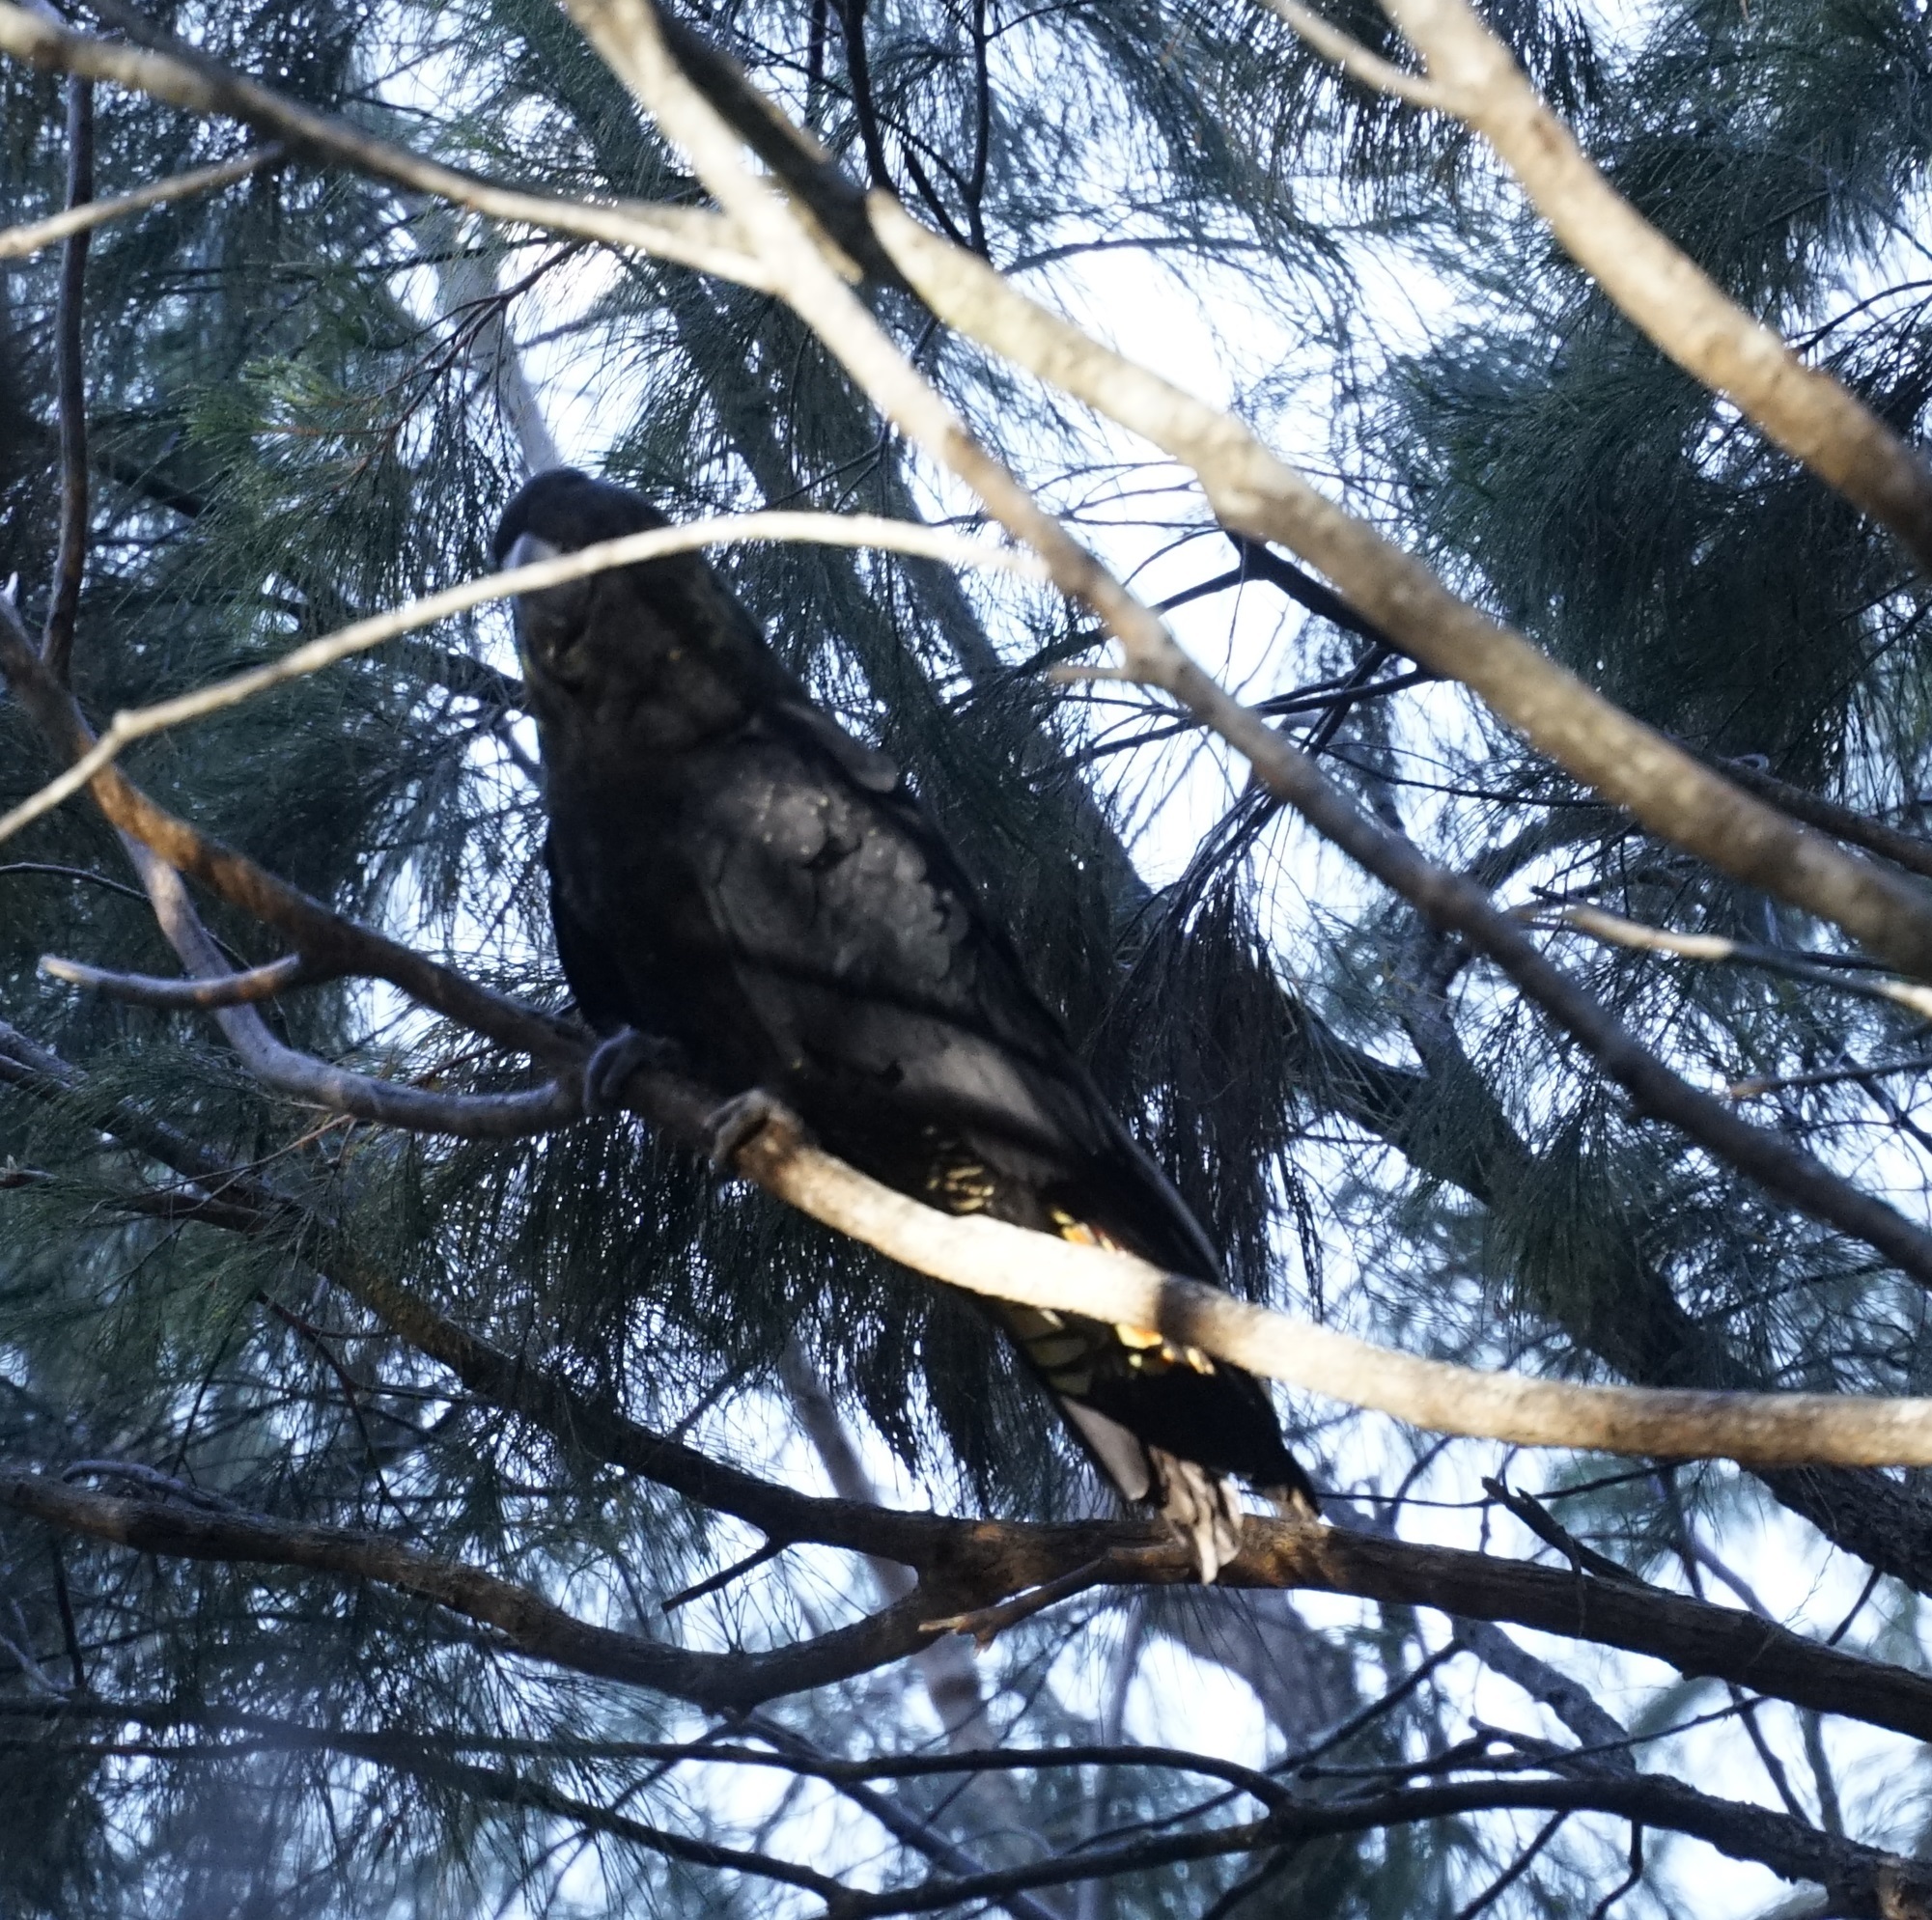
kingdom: Animalia
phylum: Chordata
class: Aves
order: Psittaciformes
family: Psittacidae
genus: Calyptorhynchus
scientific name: Calyptorhynchus lathami
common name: Glossy black cockatoo
